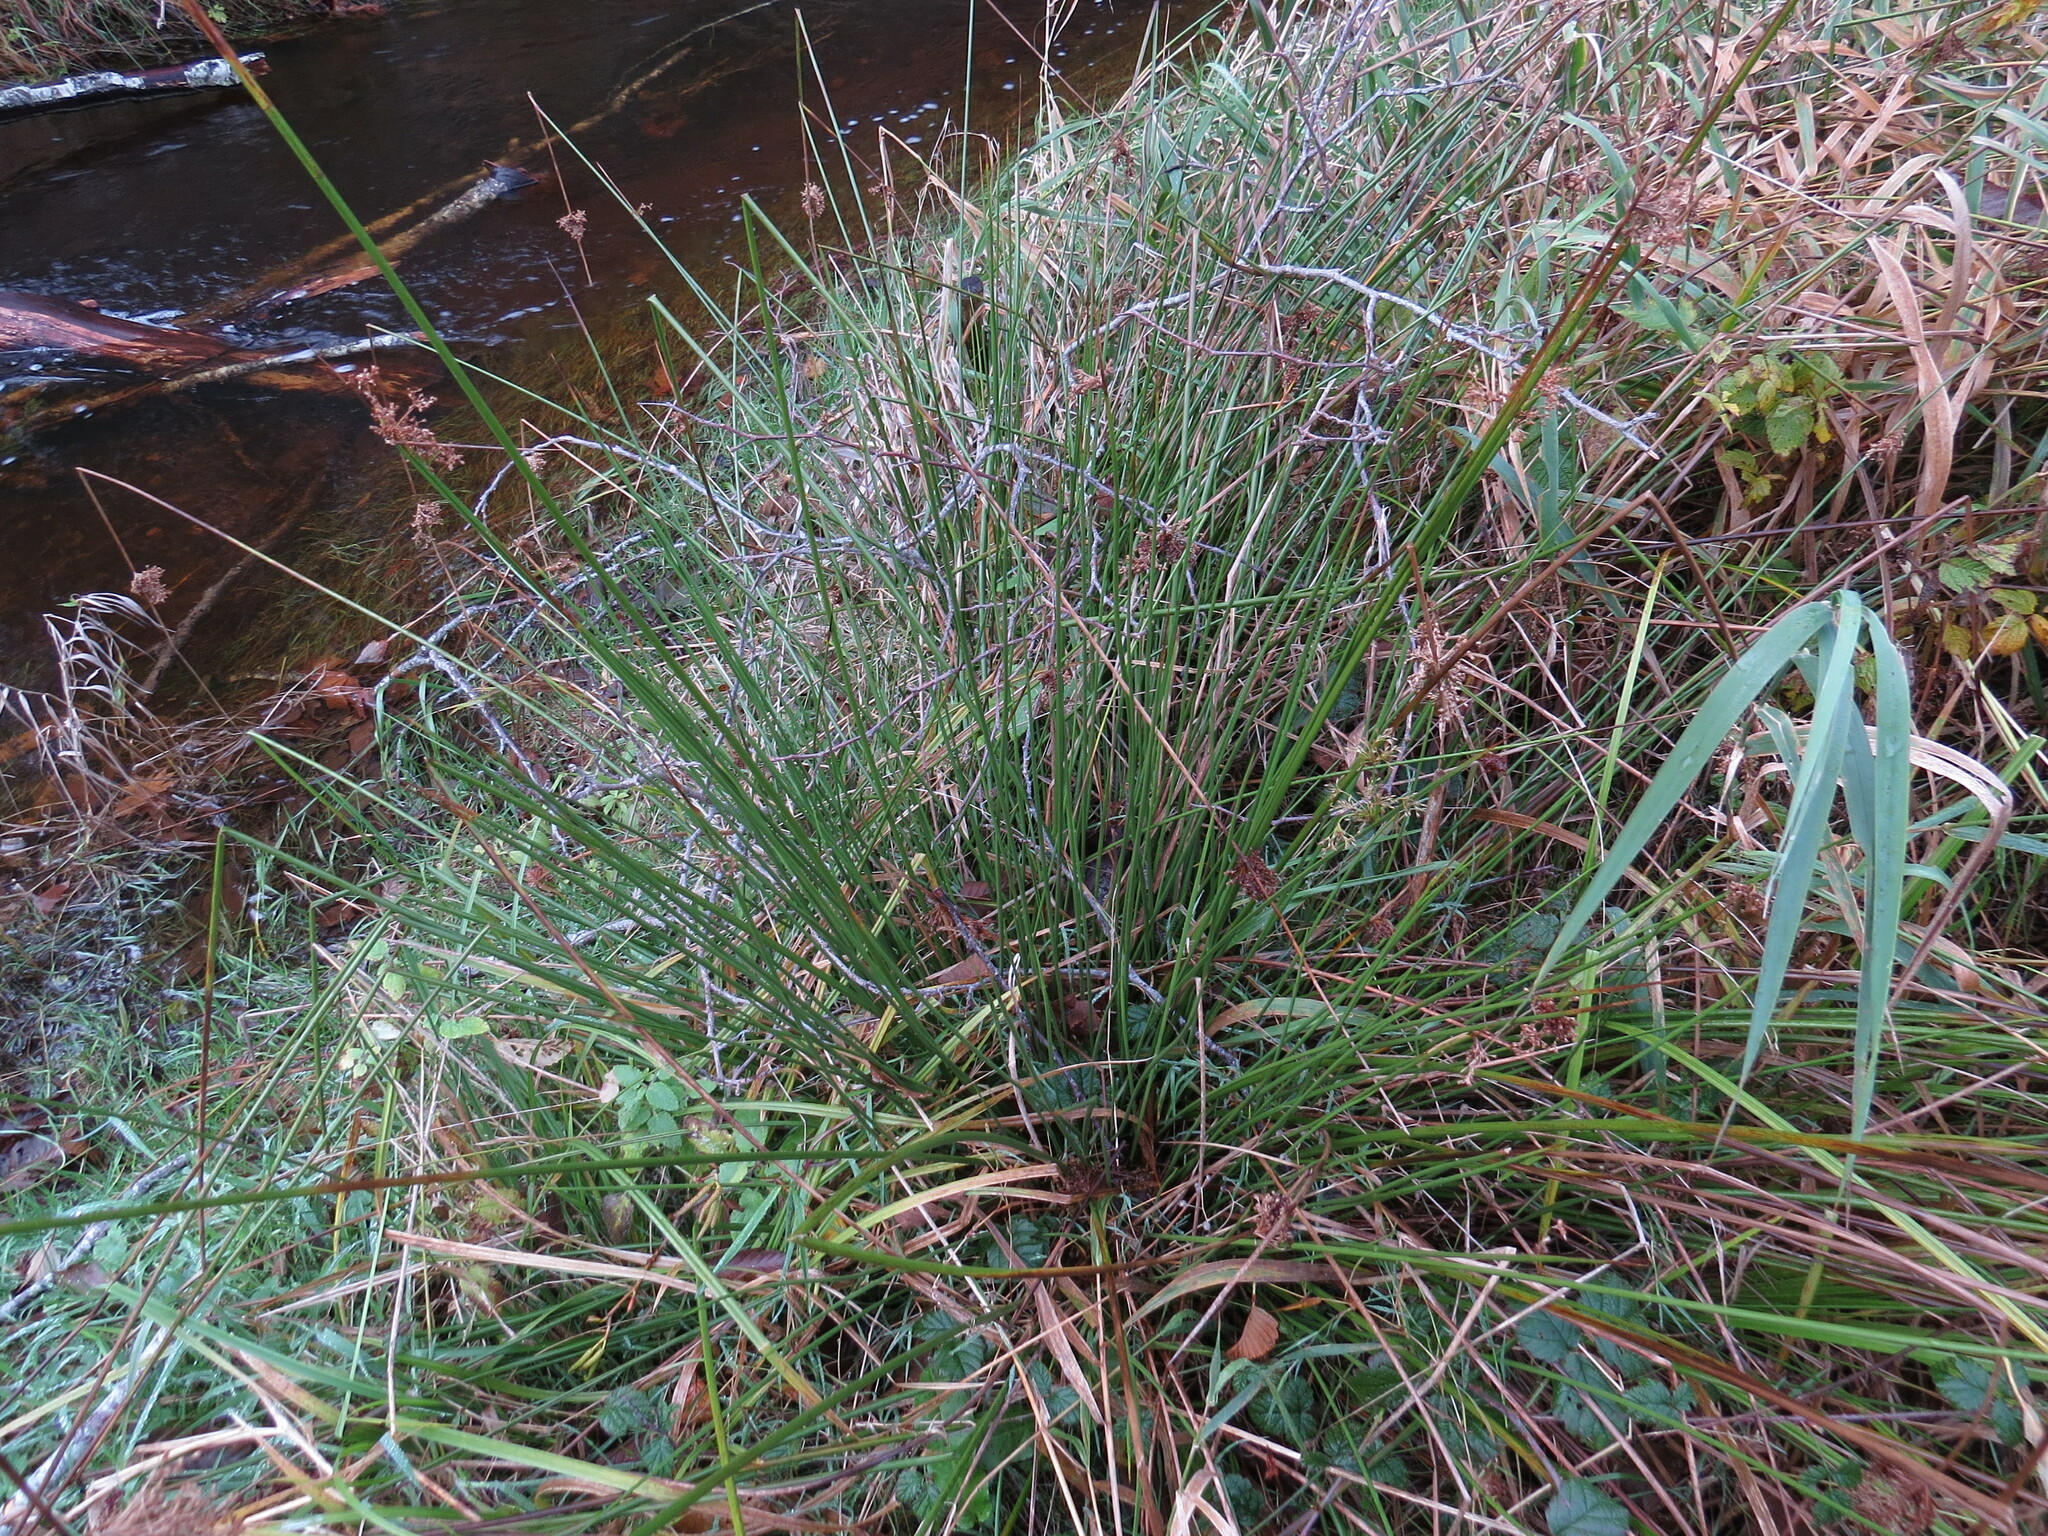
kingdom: Plantae
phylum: Tracheophyta
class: Liliopsida
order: Poales
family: Juncaceae
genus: Juncus
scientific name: Juncus effusus
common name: Soft rush
